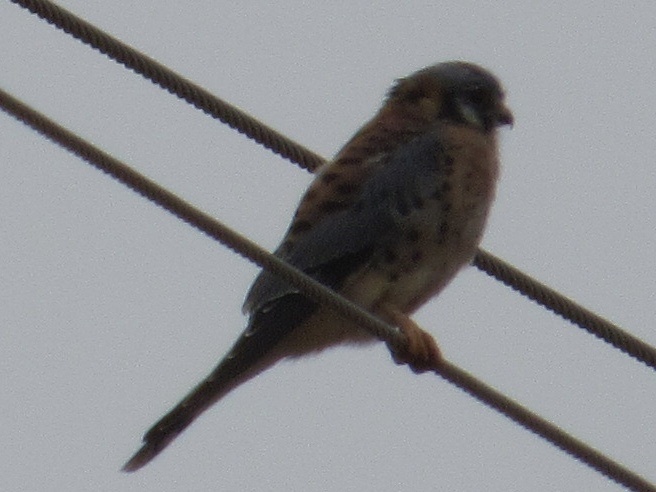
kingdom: Animalia
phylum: Chordata
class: Aves
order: Falconiformes
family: Falconidae
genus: Falco
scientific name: Falco sparverius
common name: American kestrel
